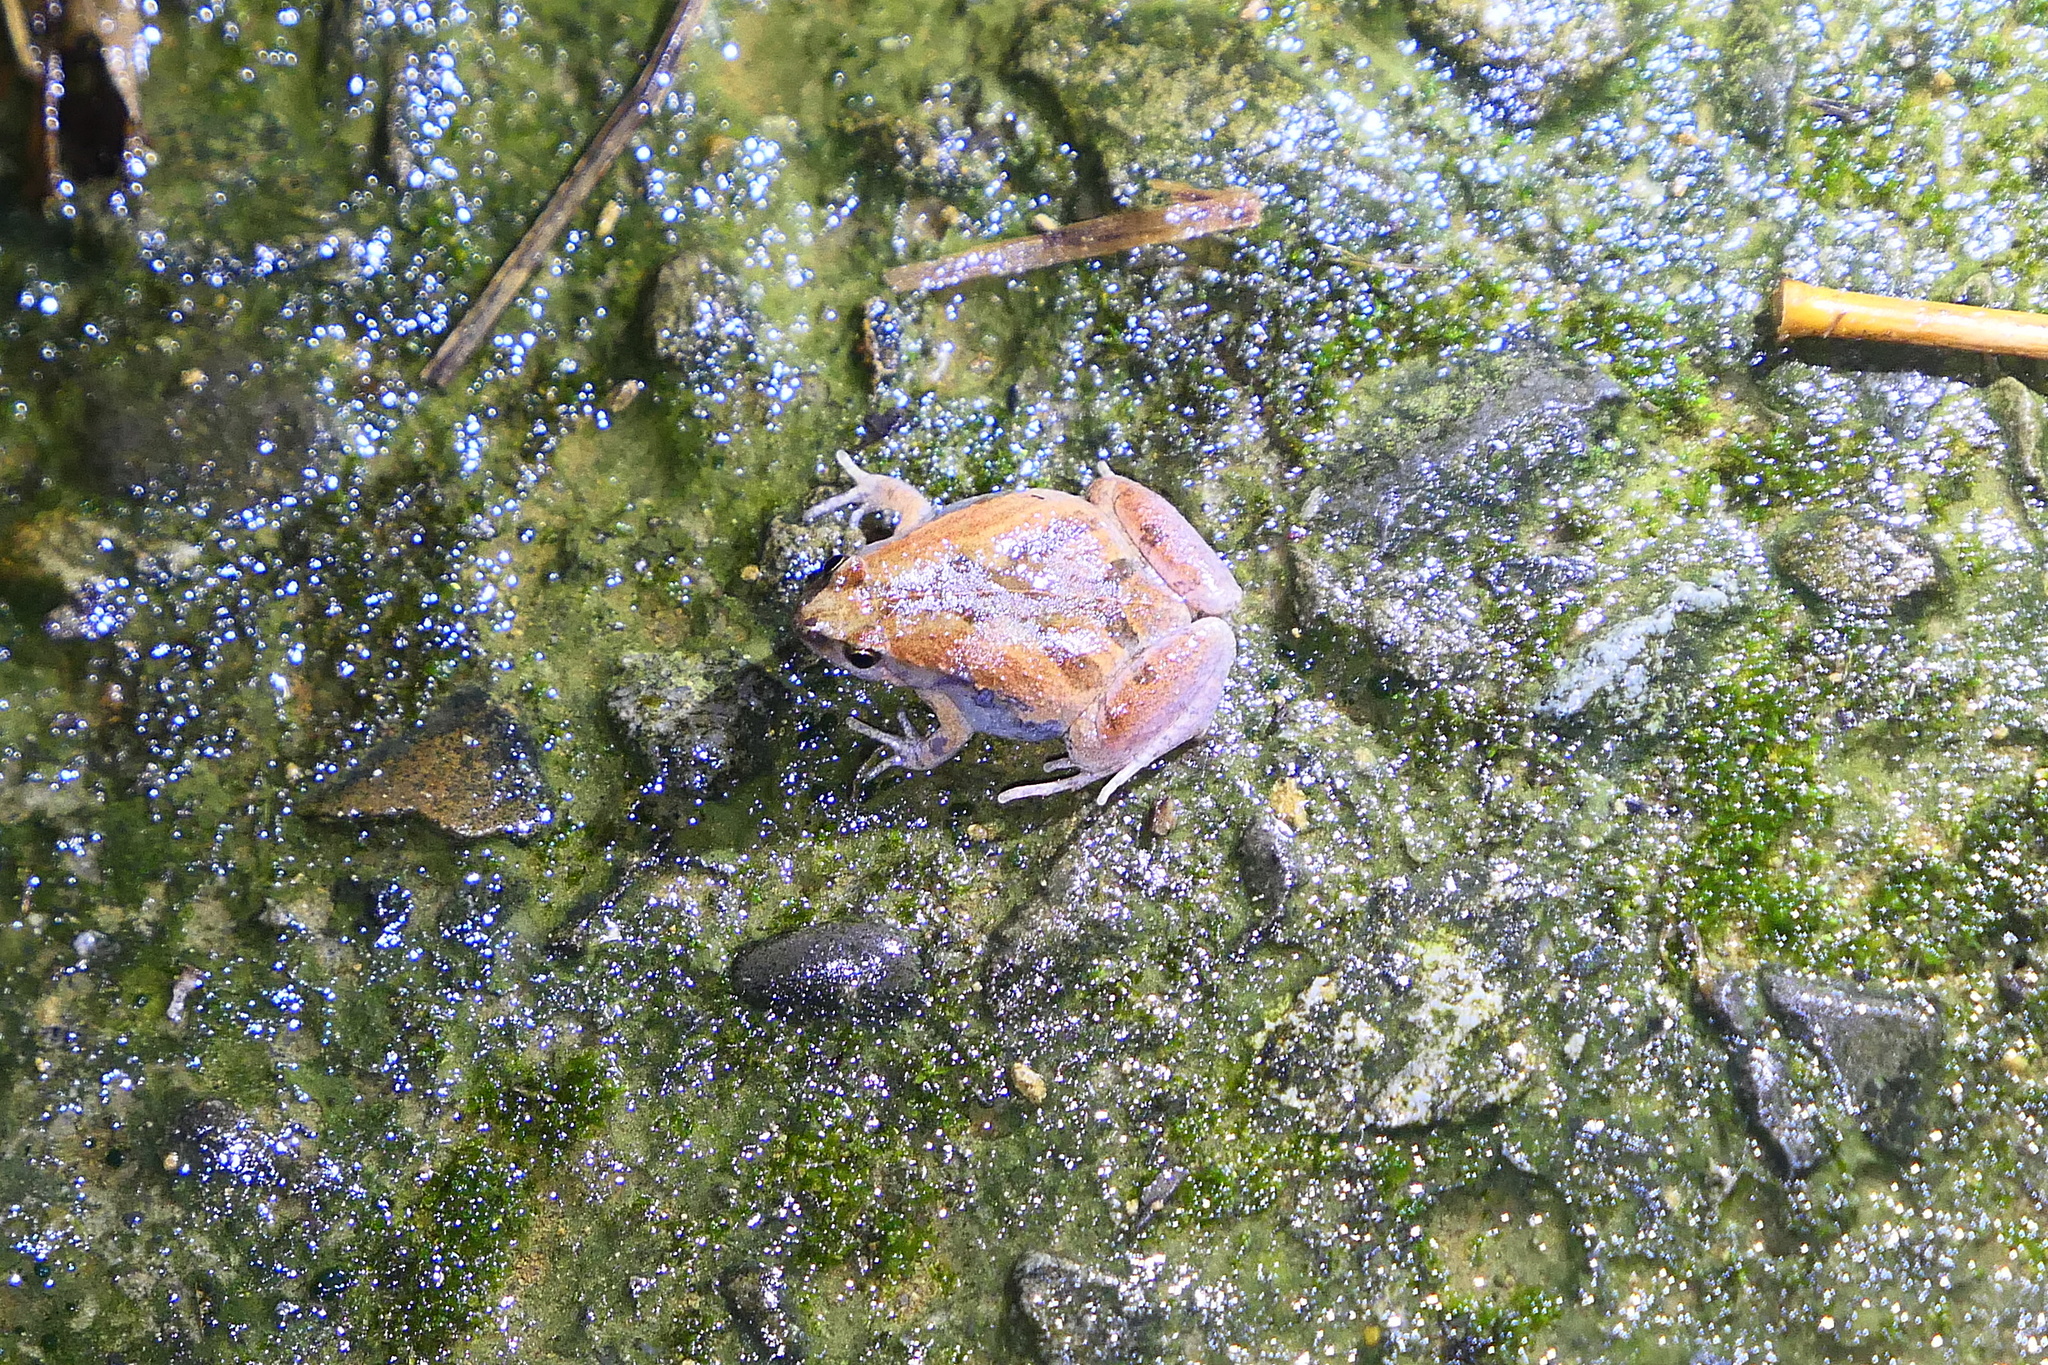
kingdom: Animalia
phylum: Chordata
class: Amphibia
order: Anura
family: Microhylidae
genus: Microhyla
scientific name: Microhyla fissipes
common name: Ornate narrow-mouthed frog
